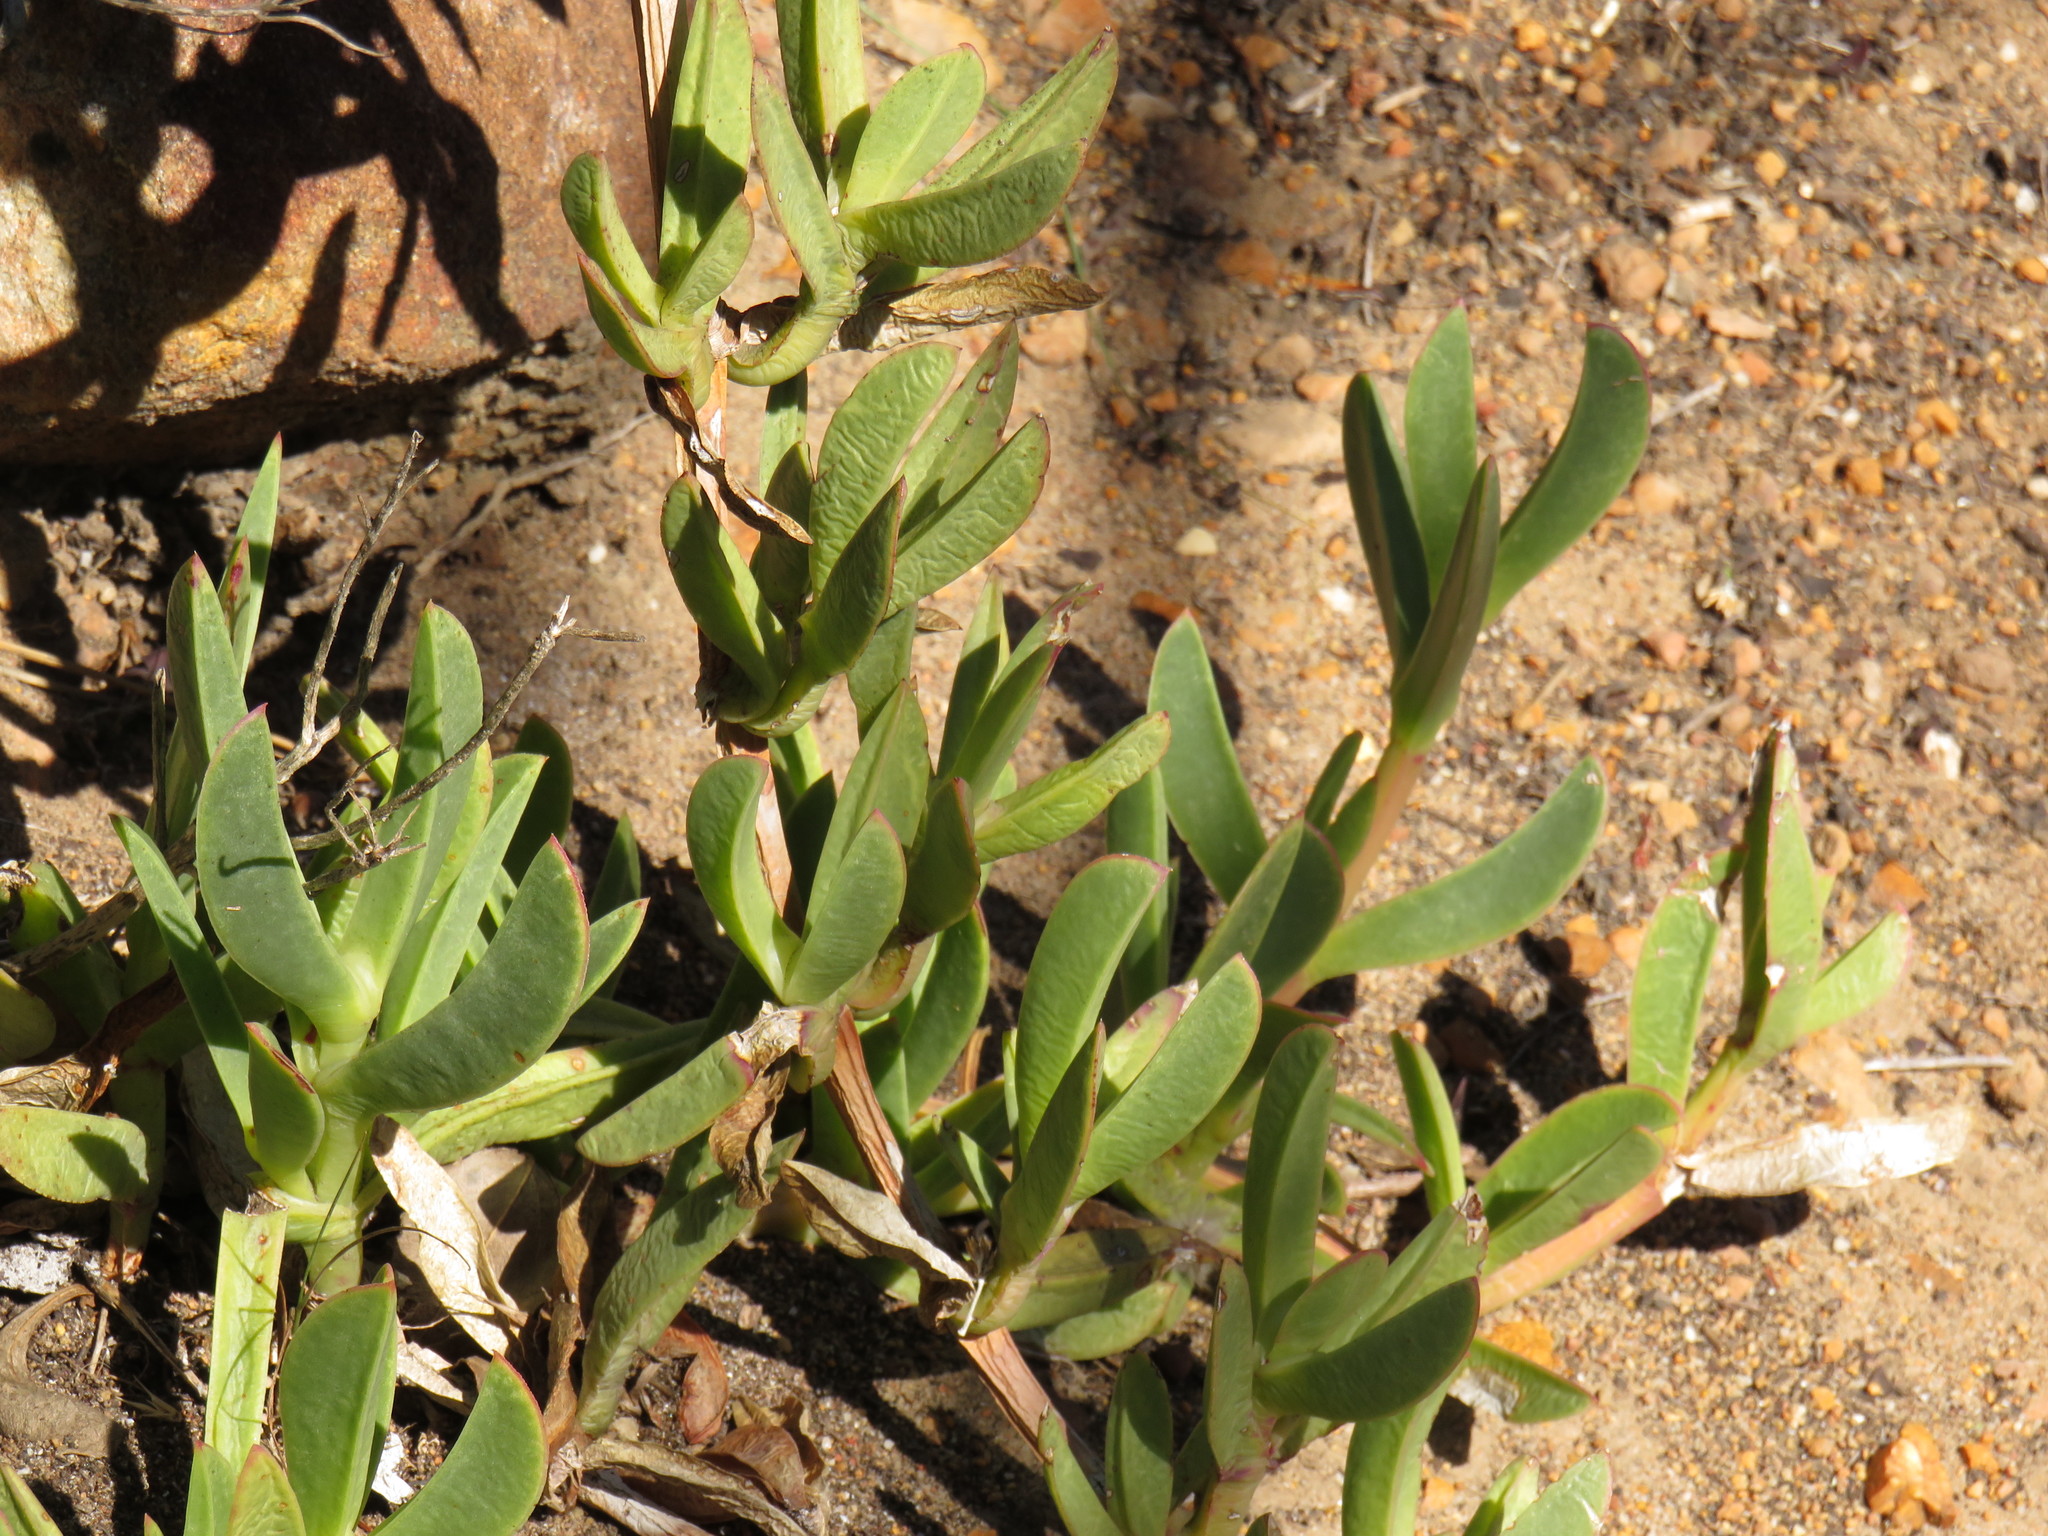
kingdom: Plantae
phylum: Tracheophyta
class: Magnoliopsida
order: Caryophyllales
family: Aizoaceae
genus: Carpobrotus
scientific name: Carpobrotus acinaciformis
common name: Sally-my-handsome
